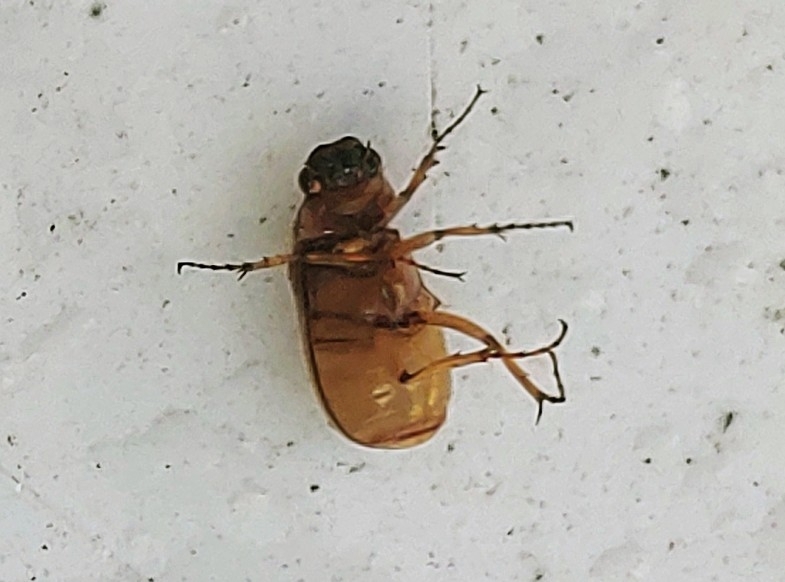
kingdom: Animalia
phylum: Arthropoda
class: Insecta
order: Coleoptera
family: Scarabaeidae
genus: Phyllophaga
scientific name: Phyllophaga bruneri
